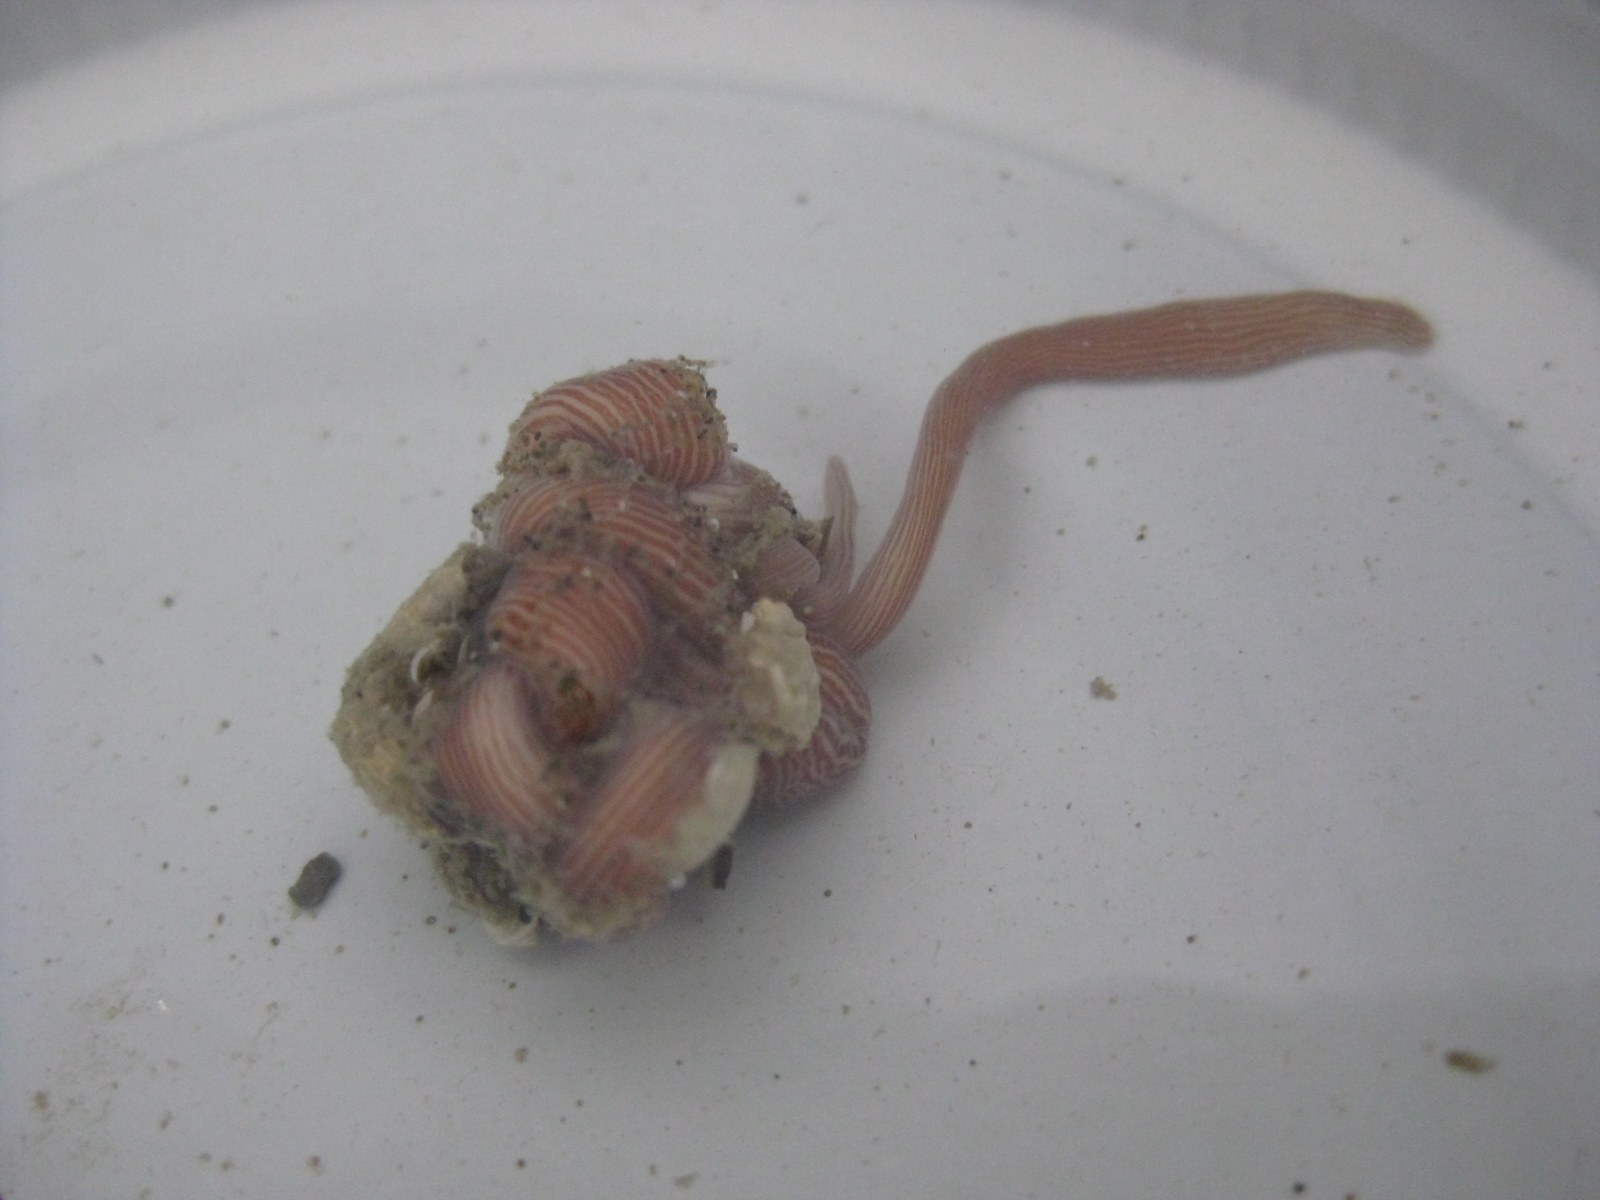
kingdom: Animalia
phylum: Nemertea
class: Pilidiophora
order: Heteronemertea
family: Valenciniidae
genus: Baseodiscus
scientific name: Baseodiscus delineatus
